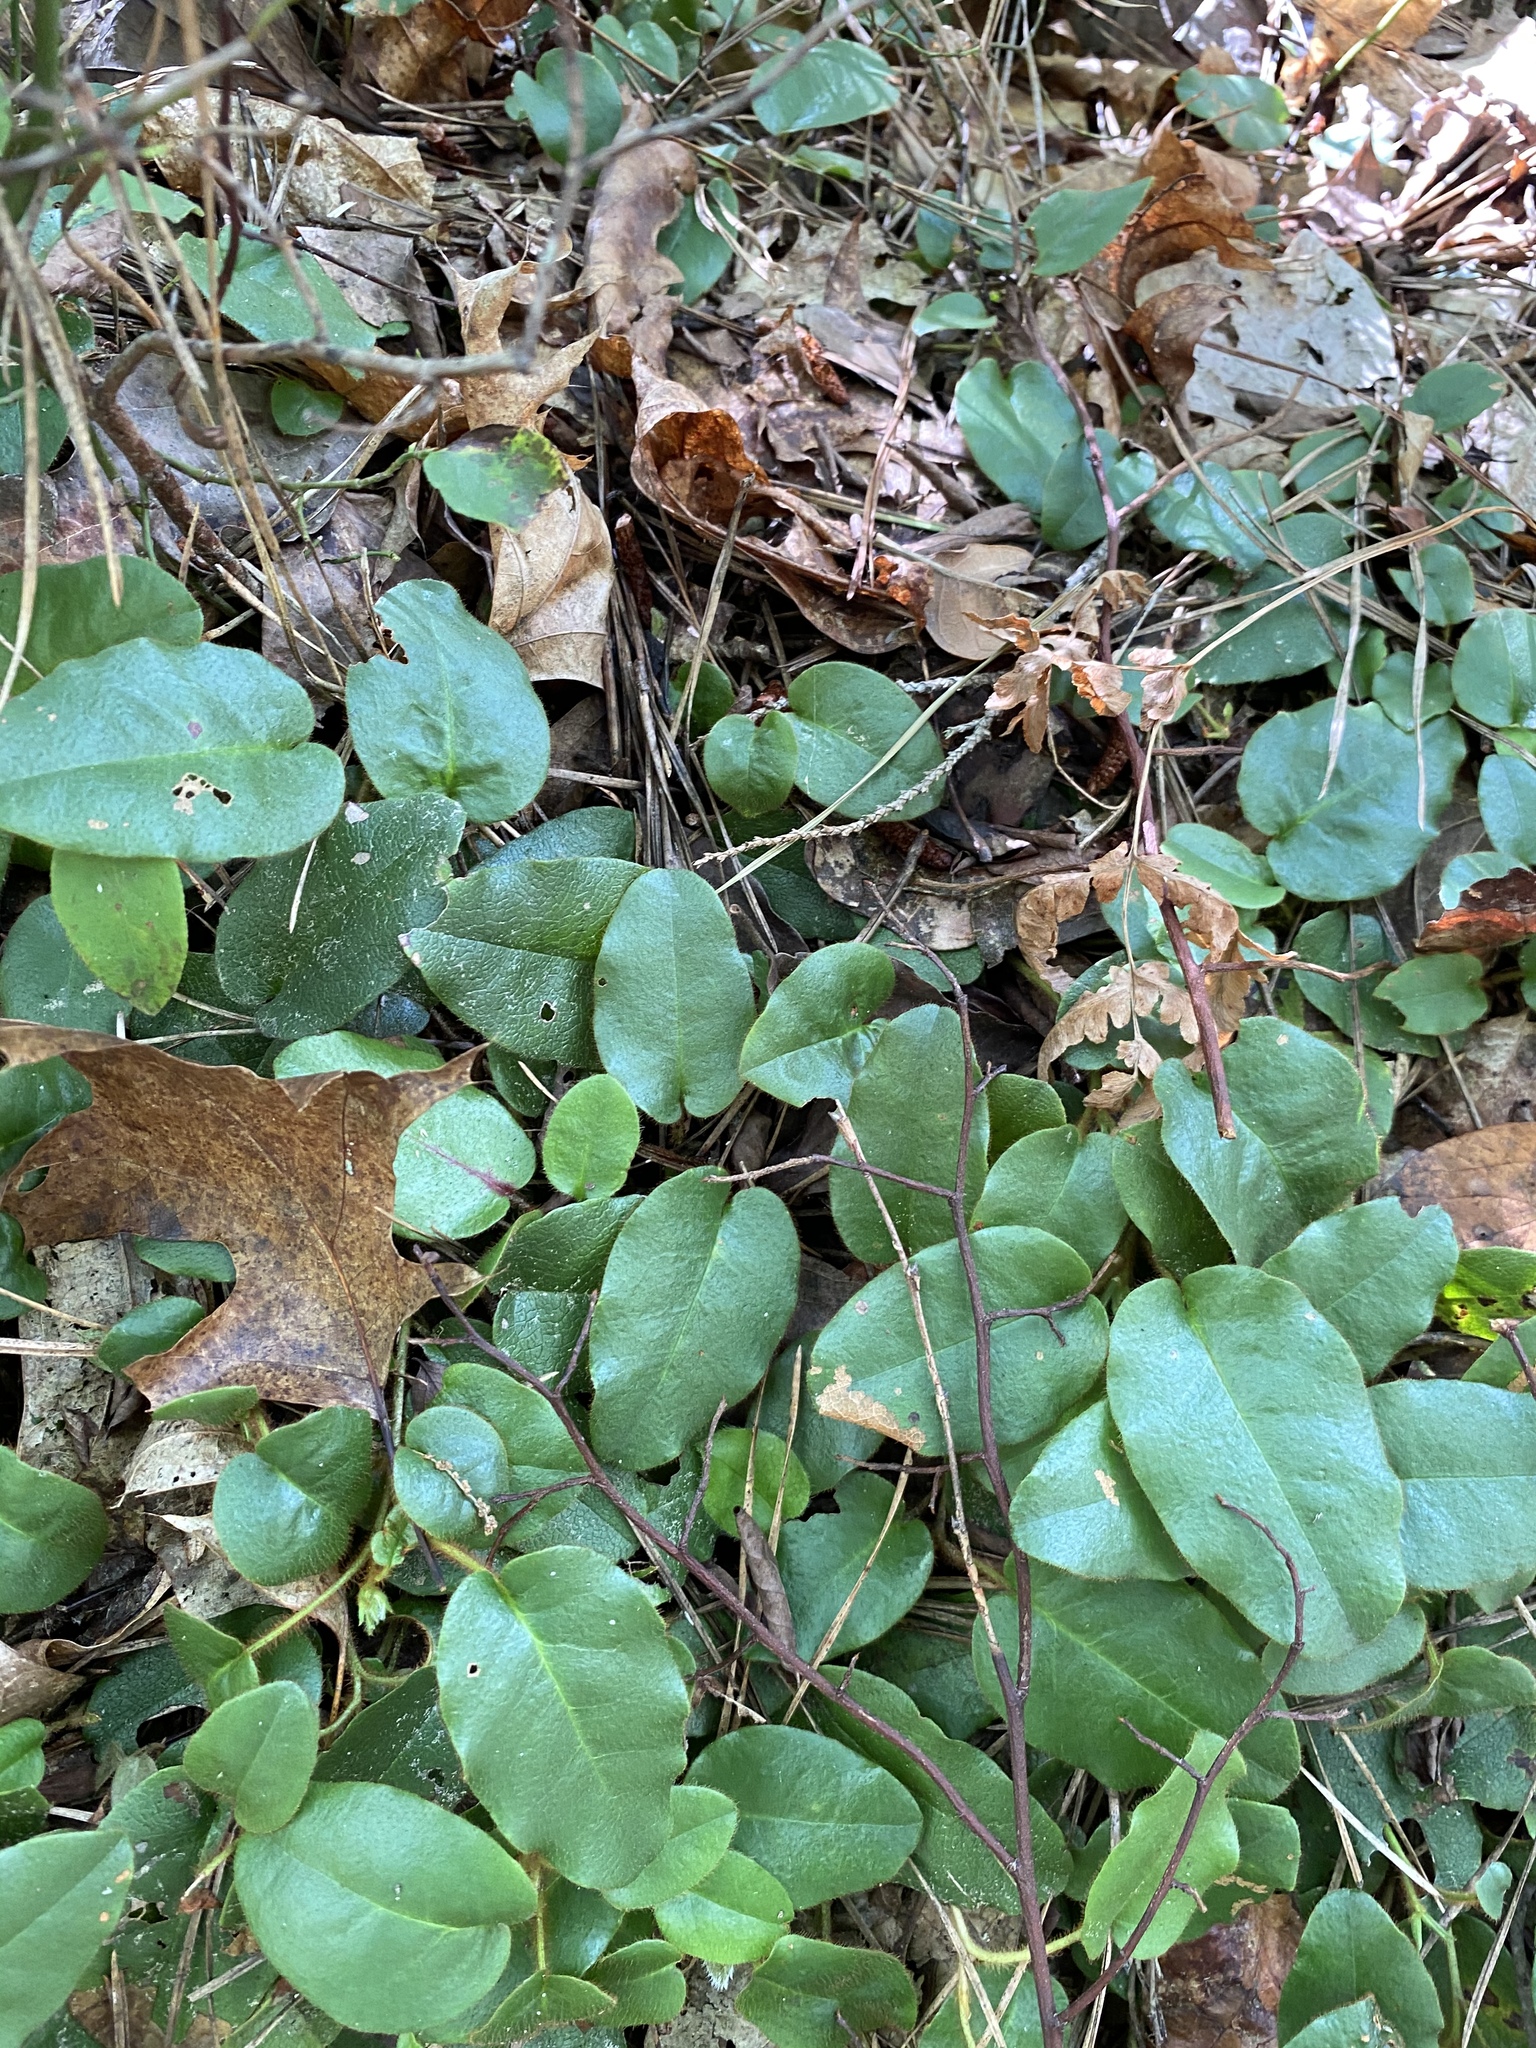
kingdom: Plantae
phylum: Tracheophyta
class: Magnoliopsida
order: Ericales
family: Ericaceae
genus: Epigaea
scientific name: Epigaea repens
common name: Gravelroot
